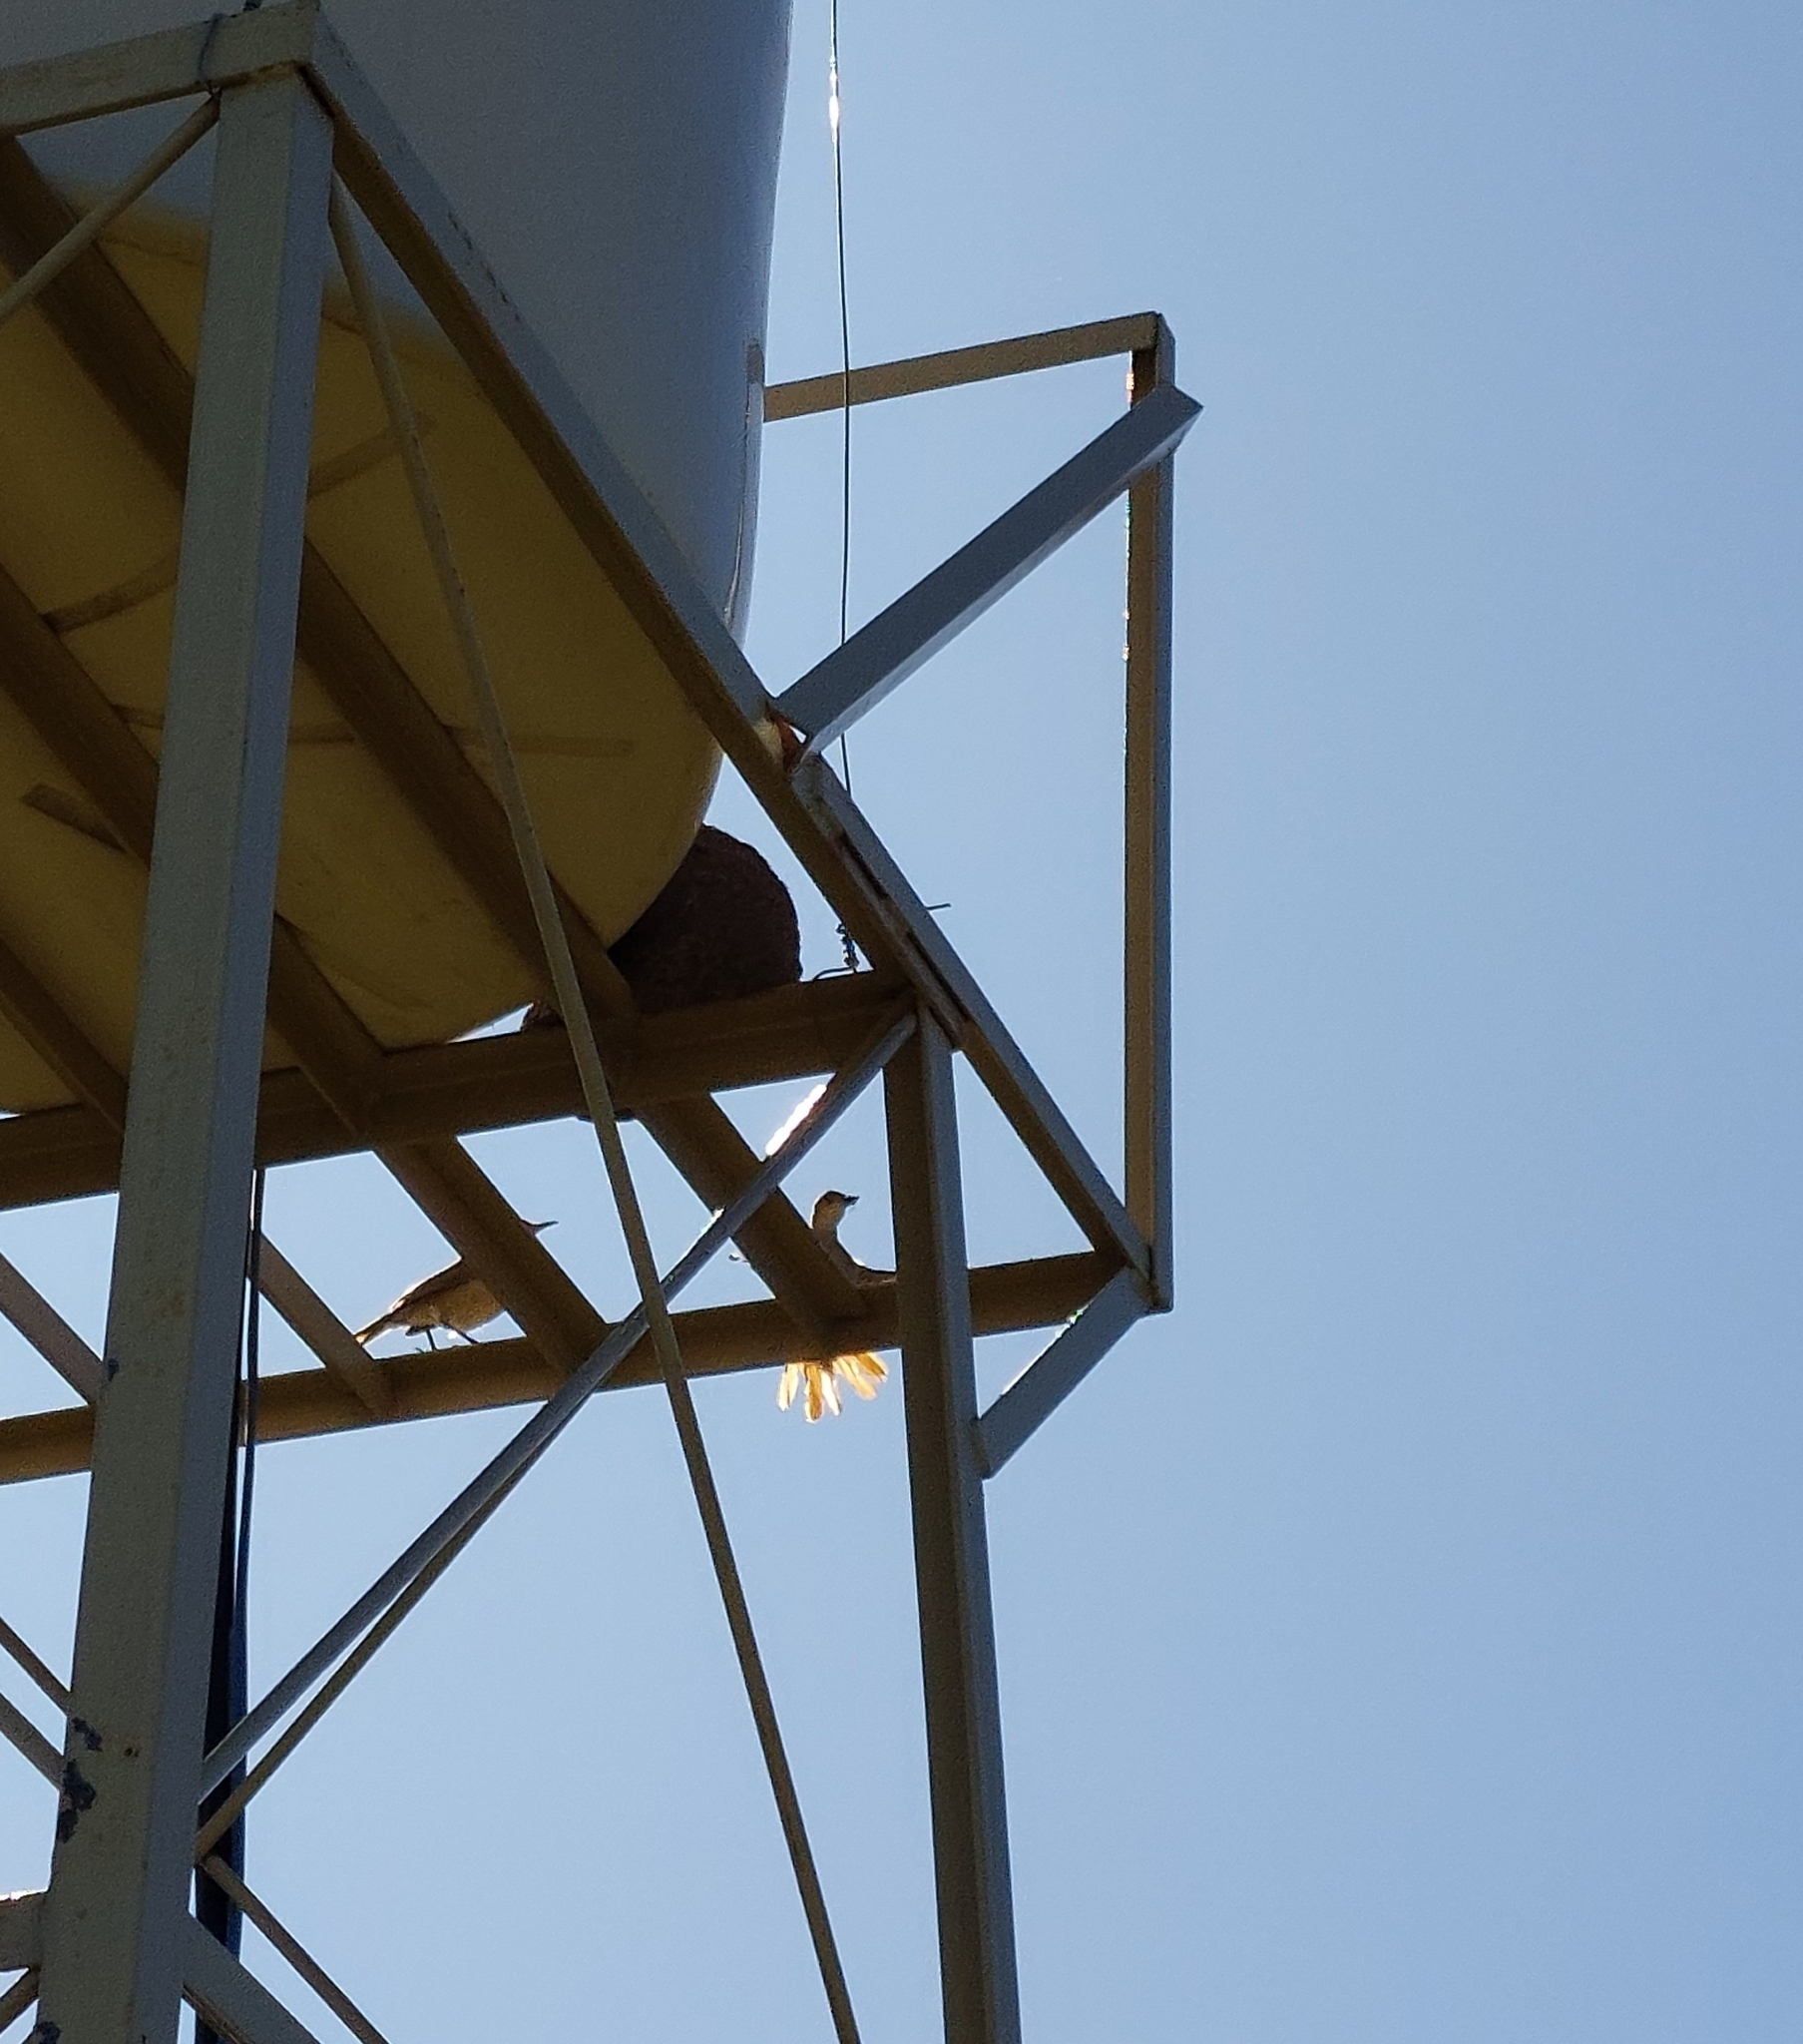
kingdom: Animalia
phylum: Chordata
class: Aves
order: Passeriformes
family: Furnariidae
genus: Furnarius
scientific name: Furnarius rufus
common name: Rufous hornero
